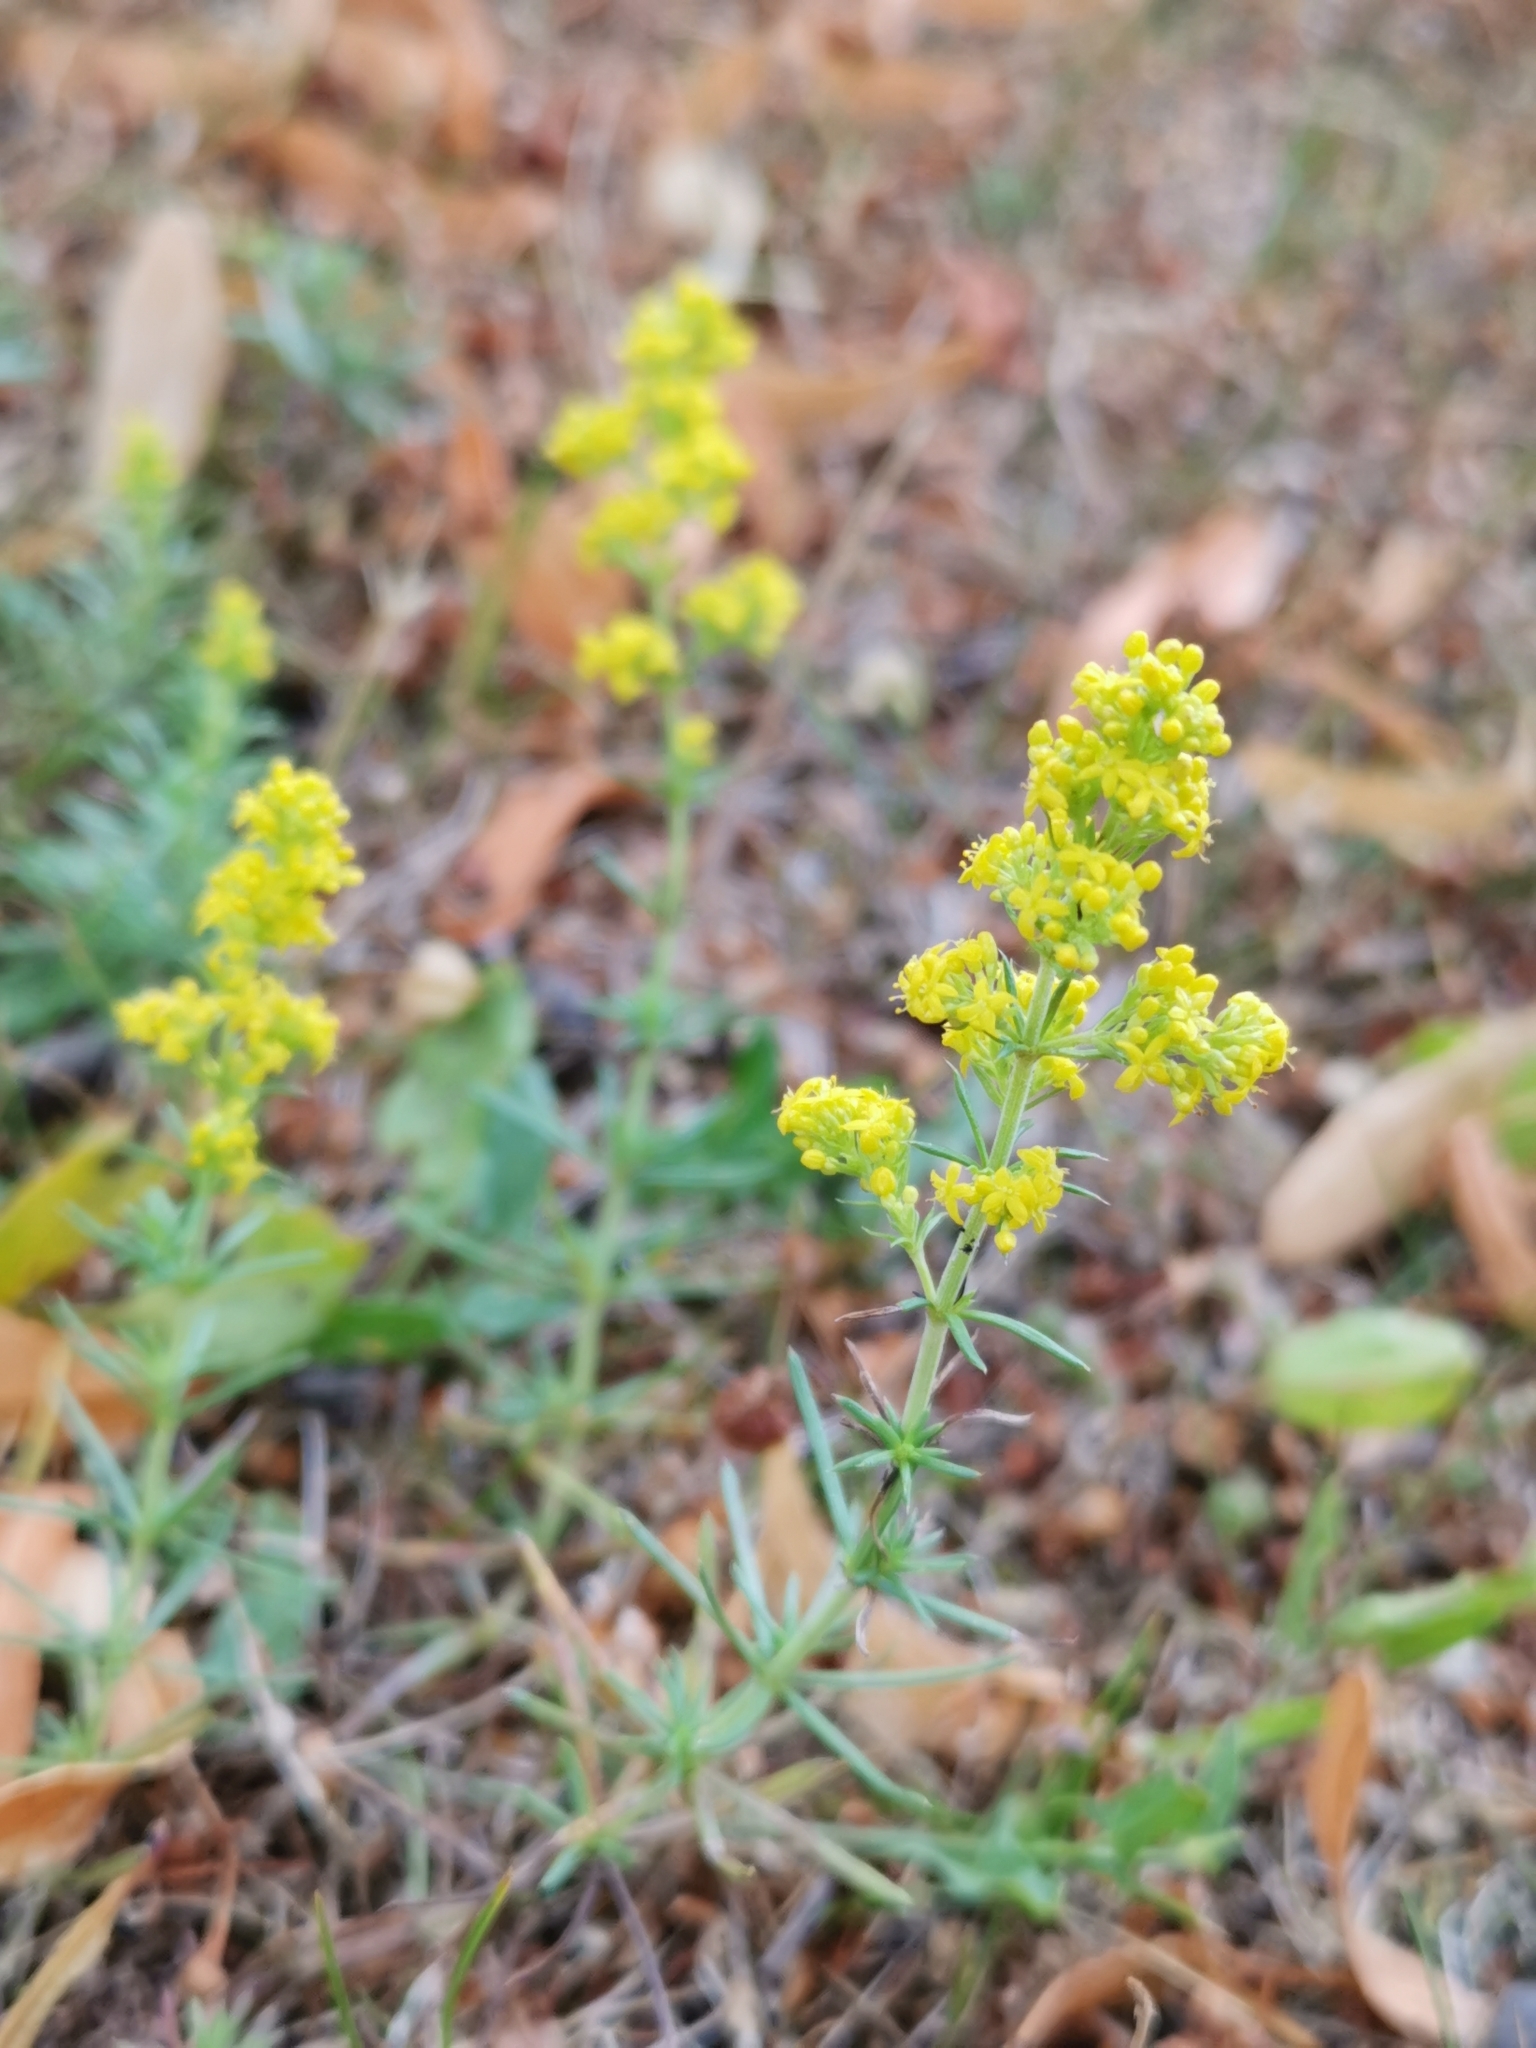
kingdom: Plantae
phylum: Tracheophyta
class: Magnoliopsida
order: Gentianales
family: Rubiaceae
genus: Galium
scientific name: Galium verum
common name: Lady's bedstraw
